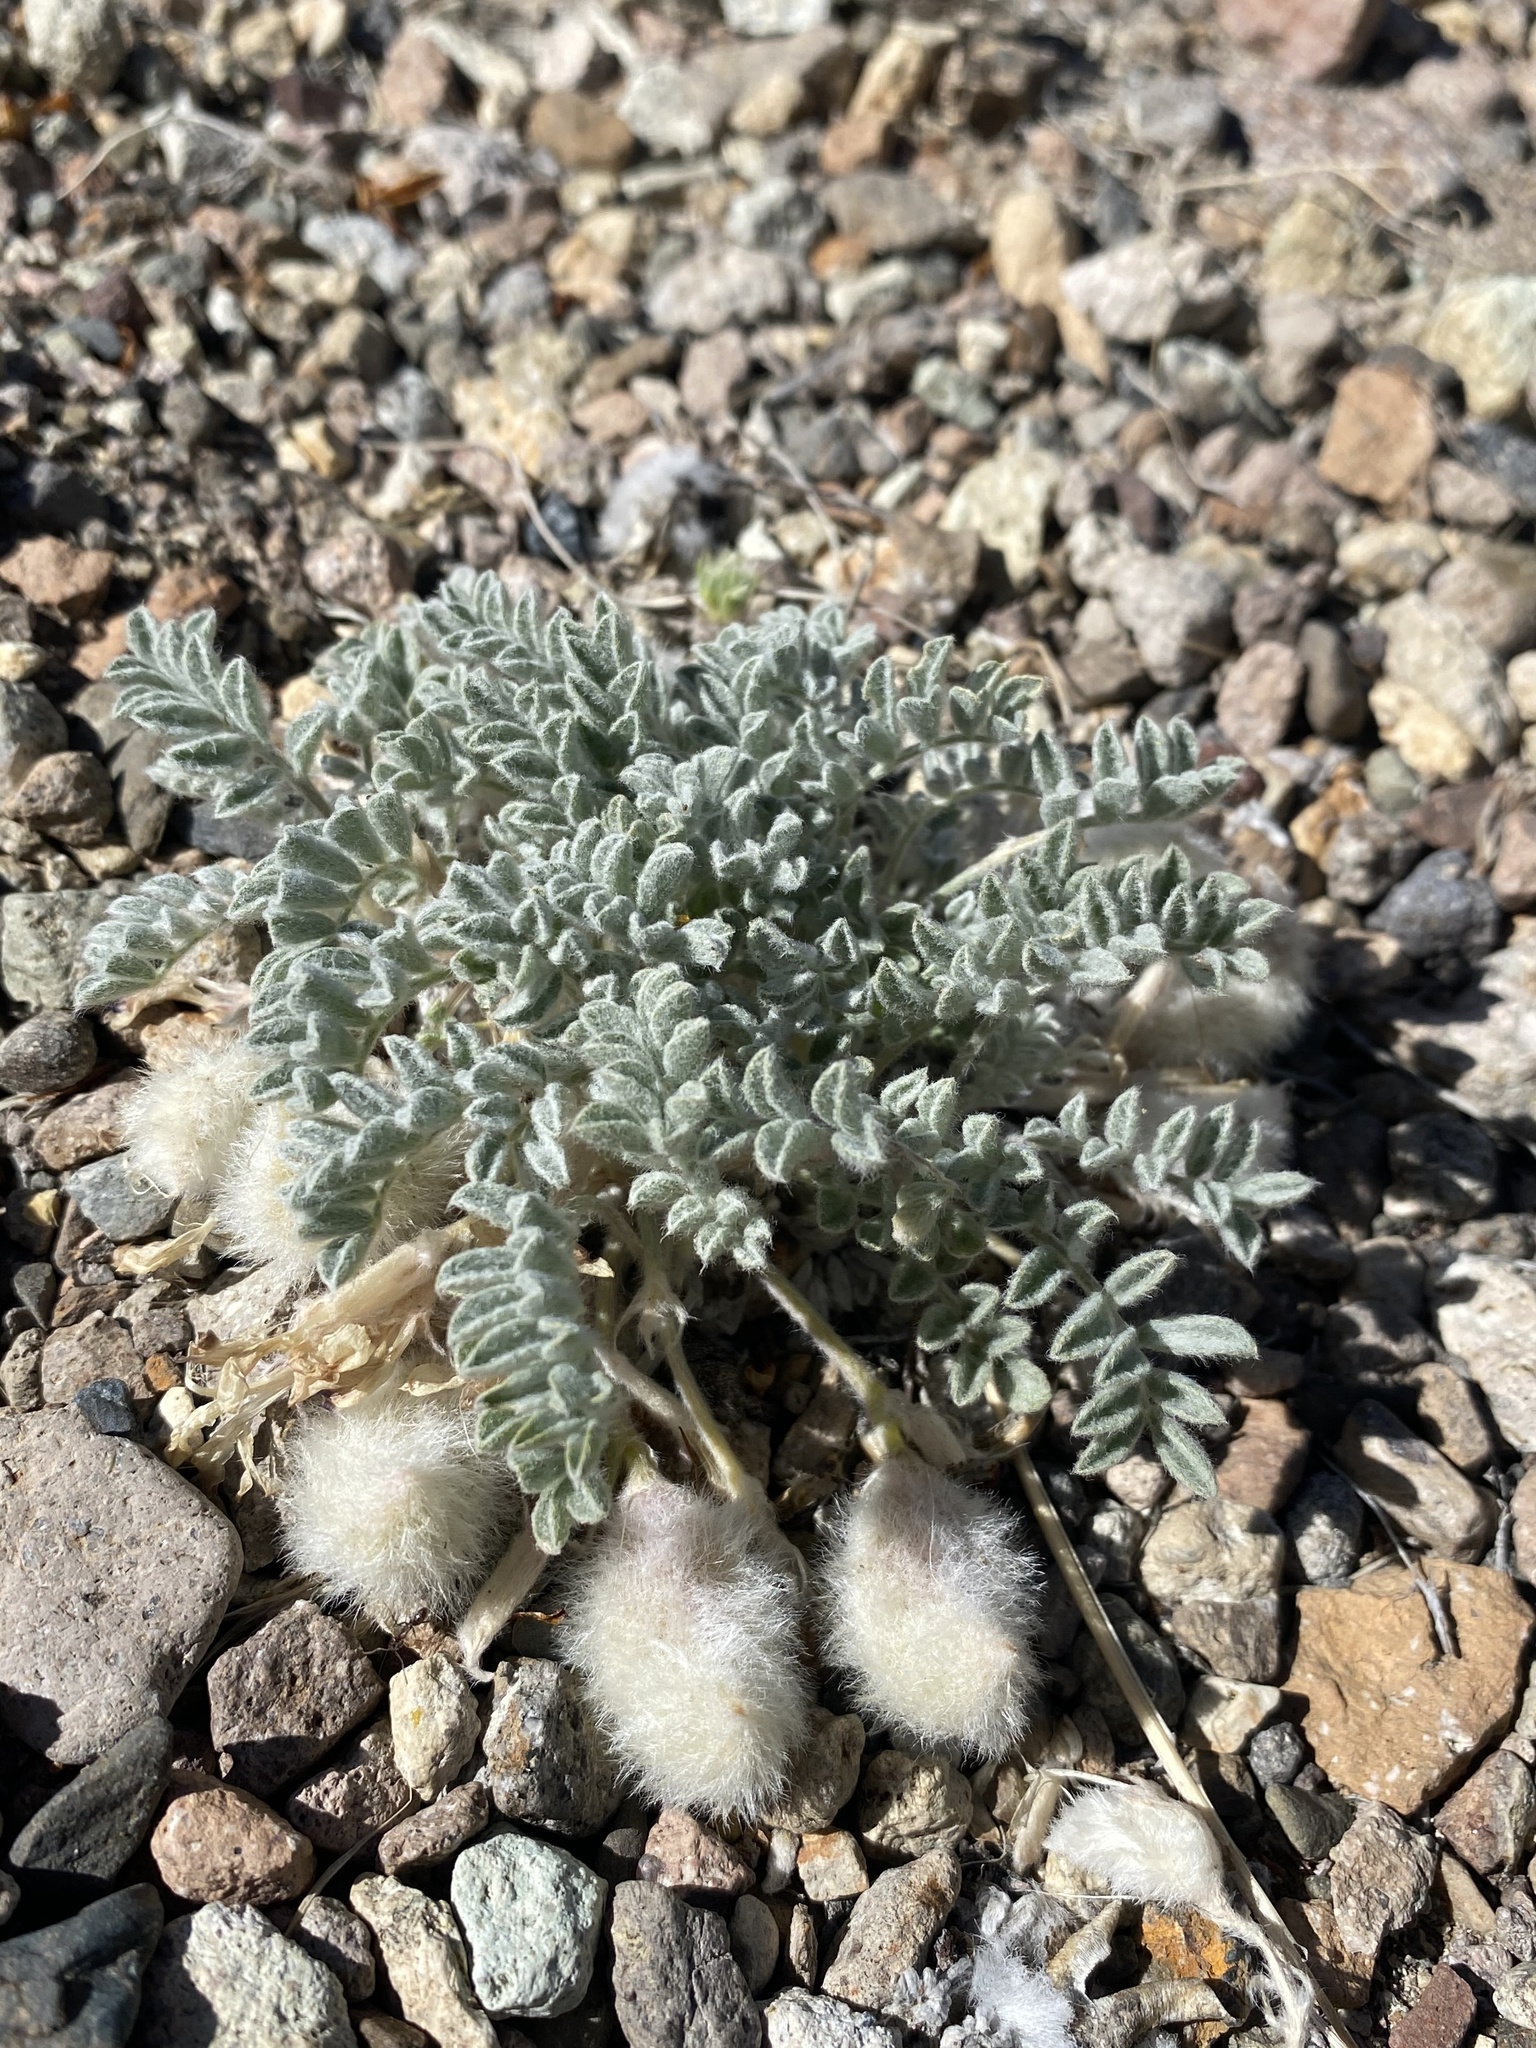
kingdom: Plantae
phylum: Tracheophyta
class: Magnoliopsida
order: Fabales
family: Fabaceae
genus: Astragalus
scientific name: Astragalus purshii
